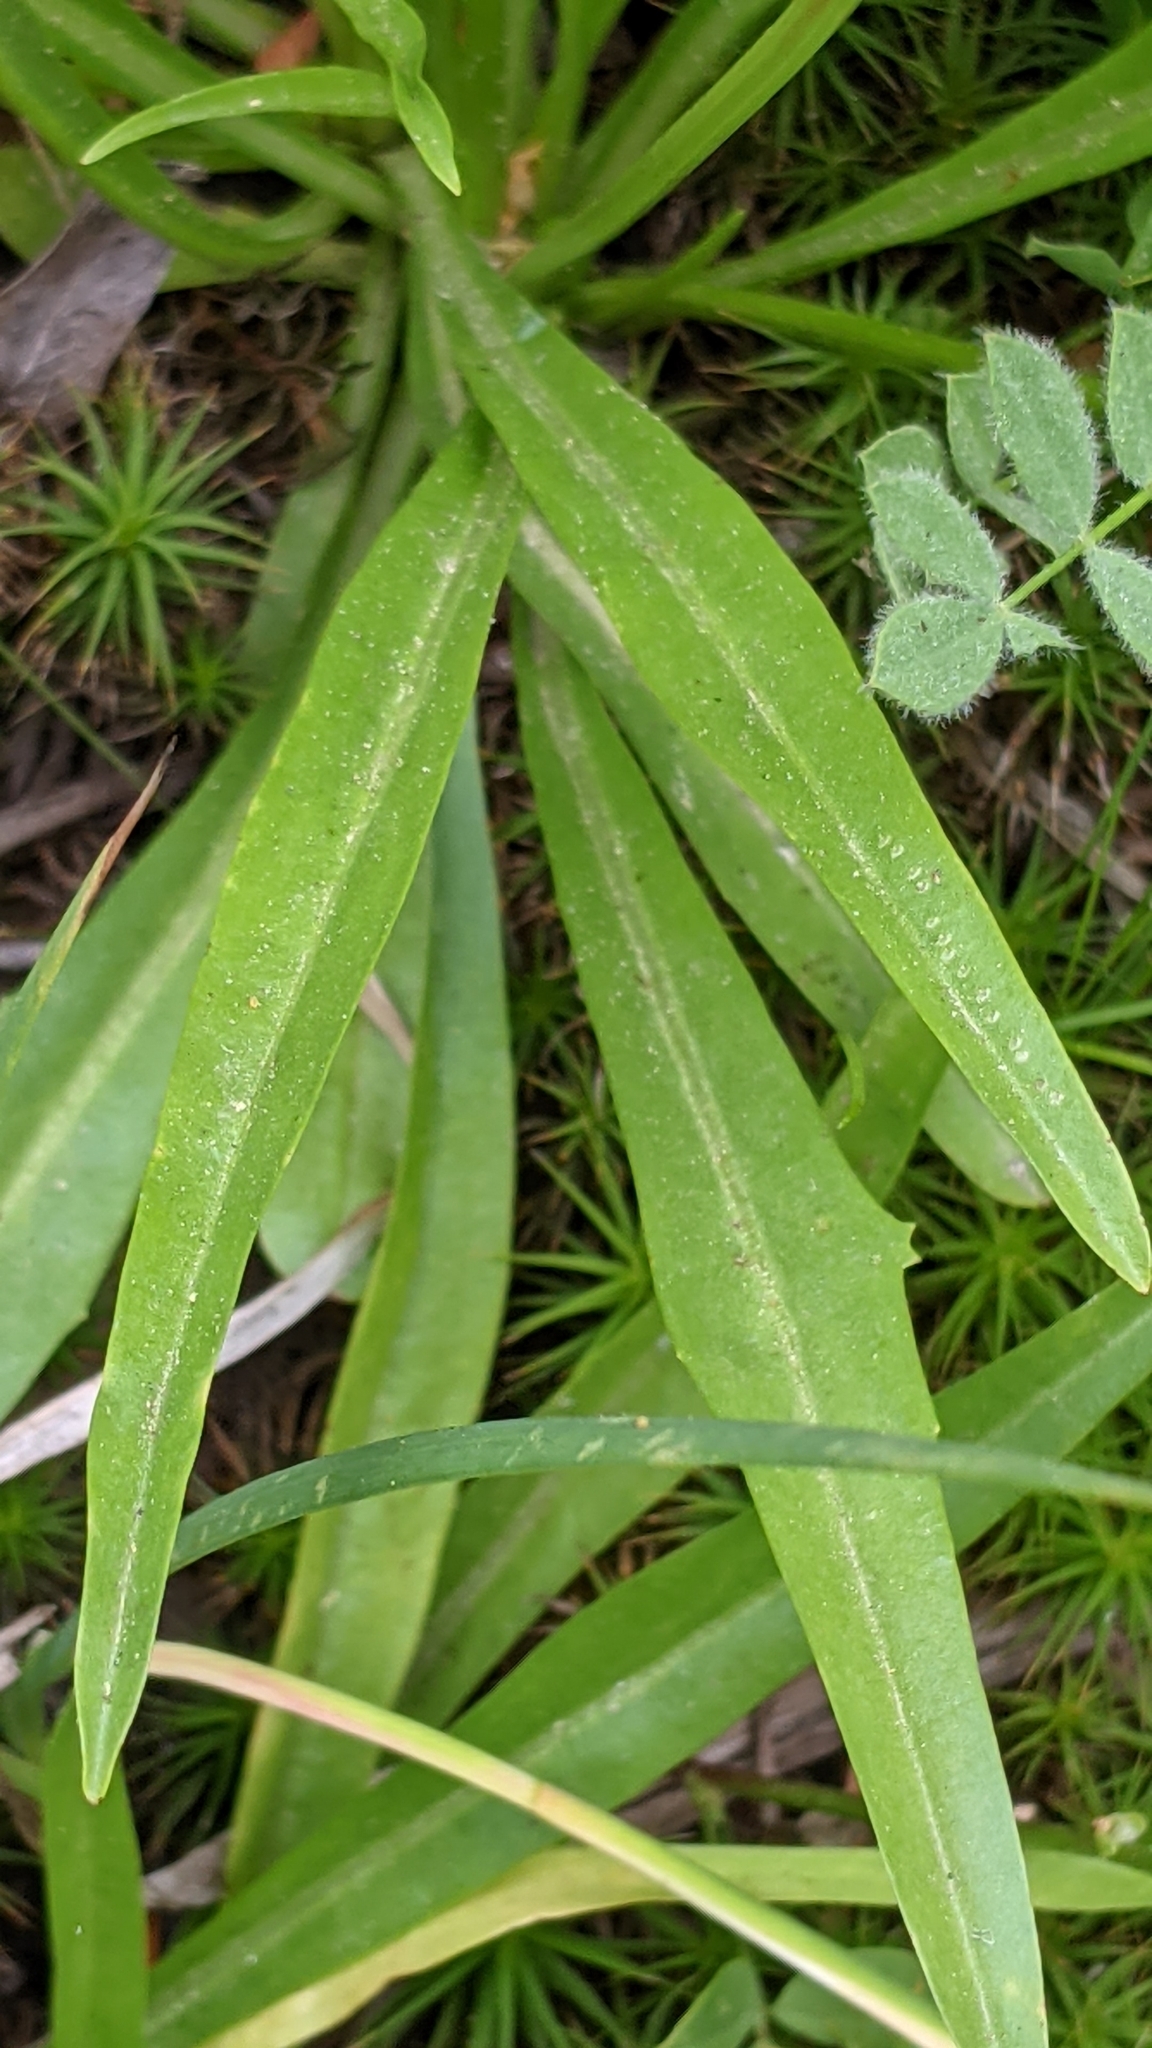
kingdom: Plantae
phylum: Tracheophyta
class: Magnoliopsida
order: Asterales
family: Asteraceae
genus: Phalacroseris
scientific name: Phalacroseris bolanderi
